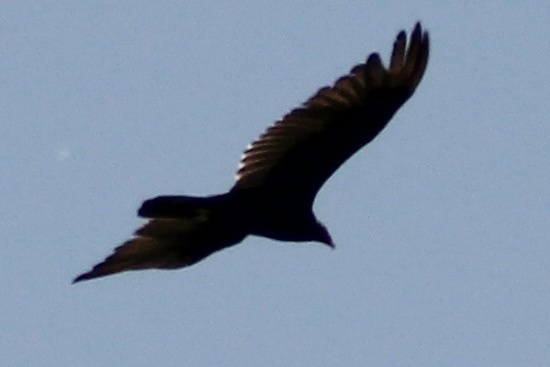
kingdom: Animalia
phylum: Chordata
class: Aves
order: Accipitriformes
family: Cathartidae
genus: Cathartes
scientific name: Cathartes aura
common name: Turkey vulture
